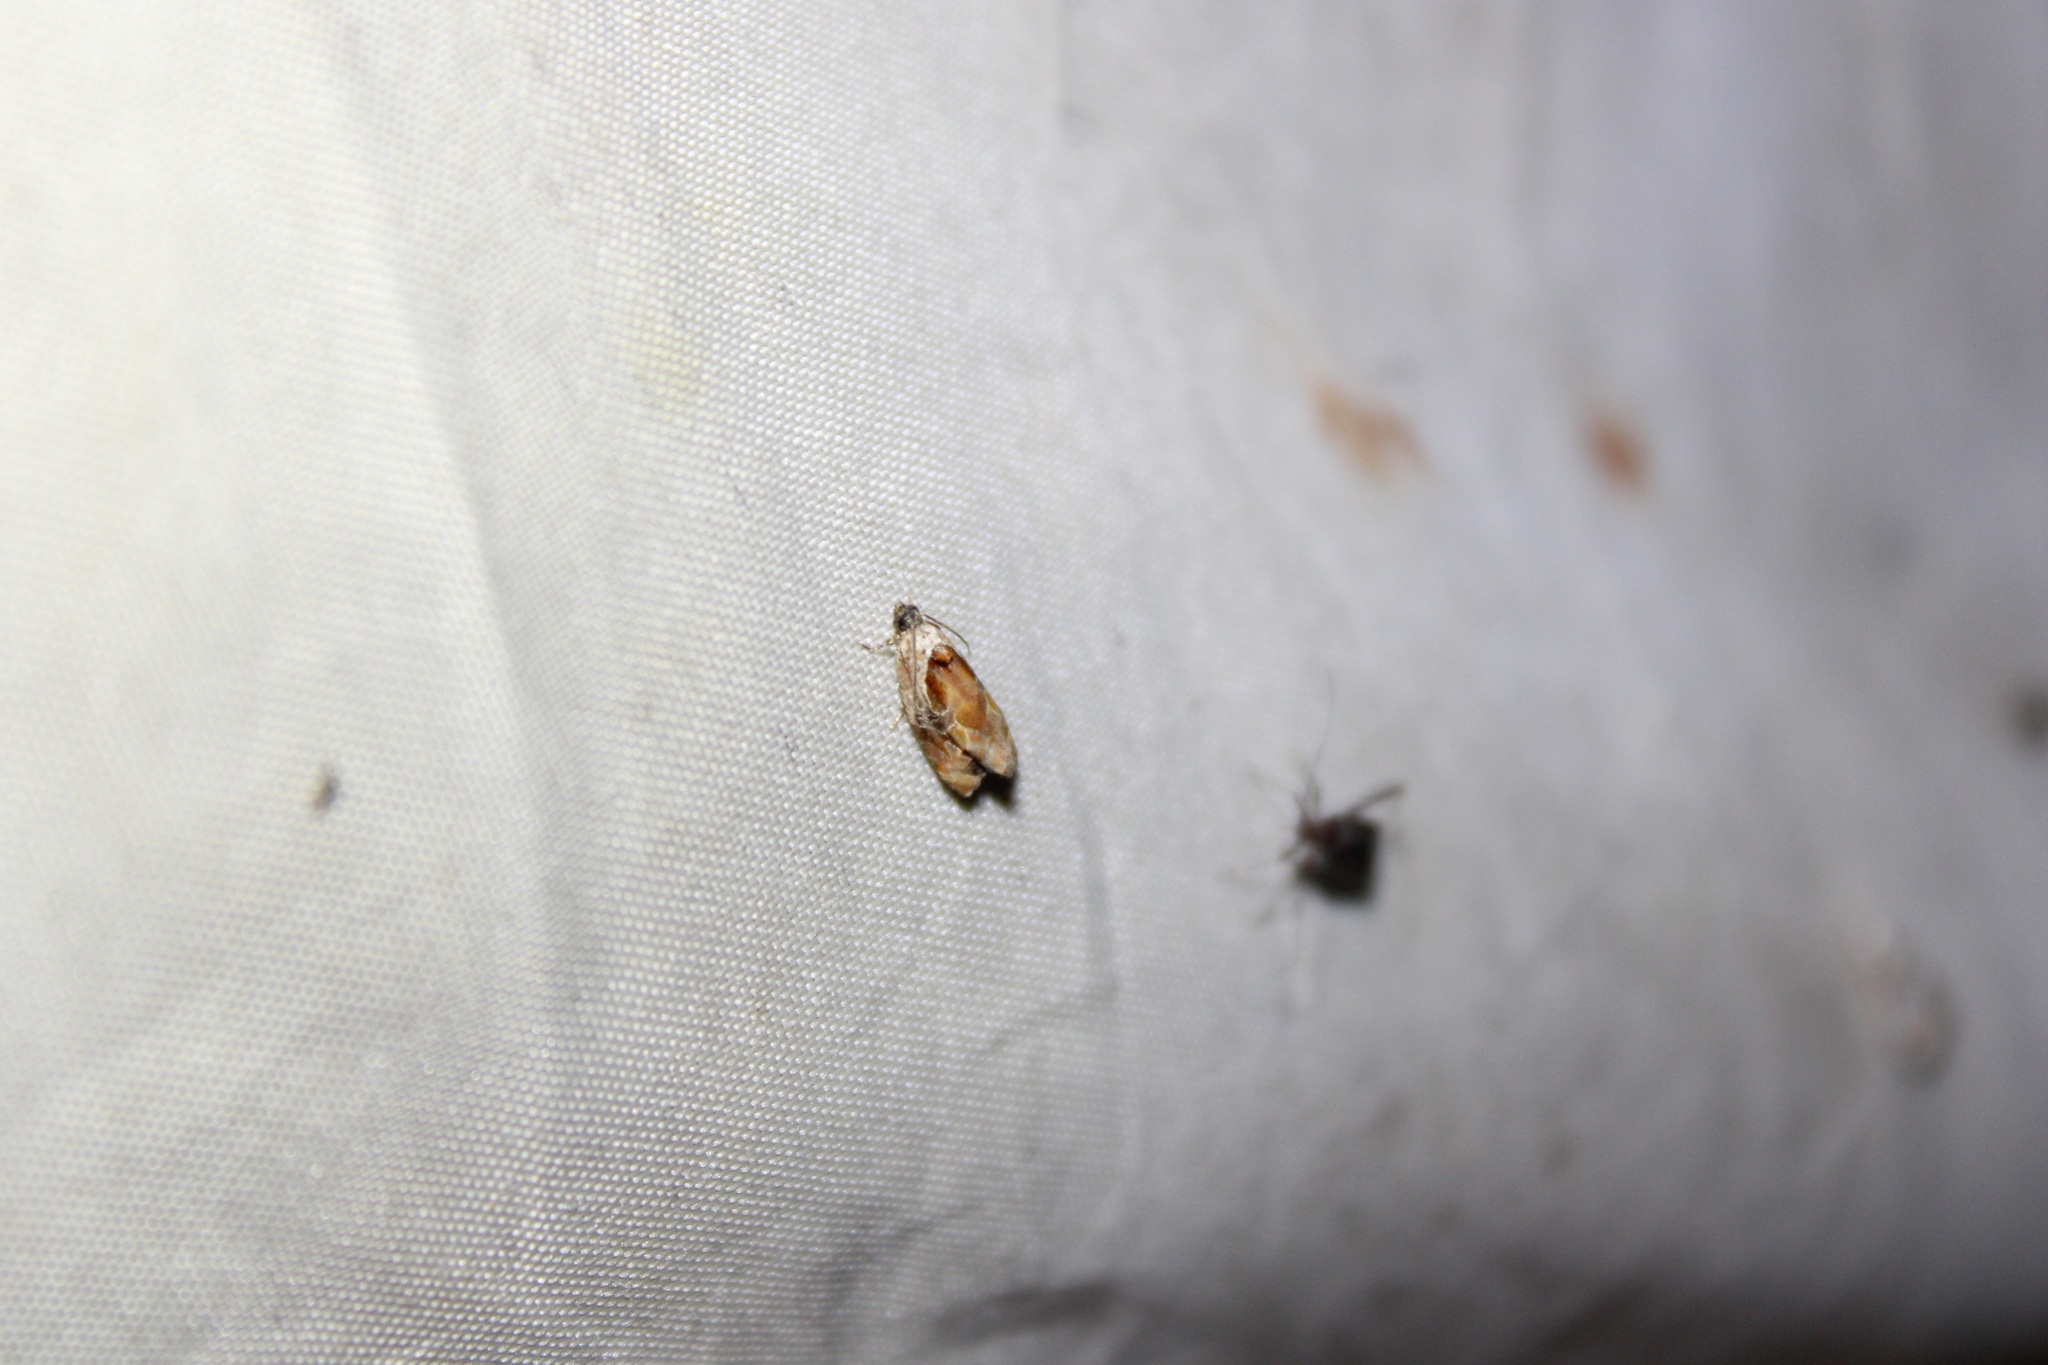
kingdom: Animalia
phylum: Arthropoda
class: Insecta
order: Lepidoptera
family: Tortricidae
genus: Zomaria
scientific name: Zomaria interruptolineana
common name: Broken-lined zomaria moth
